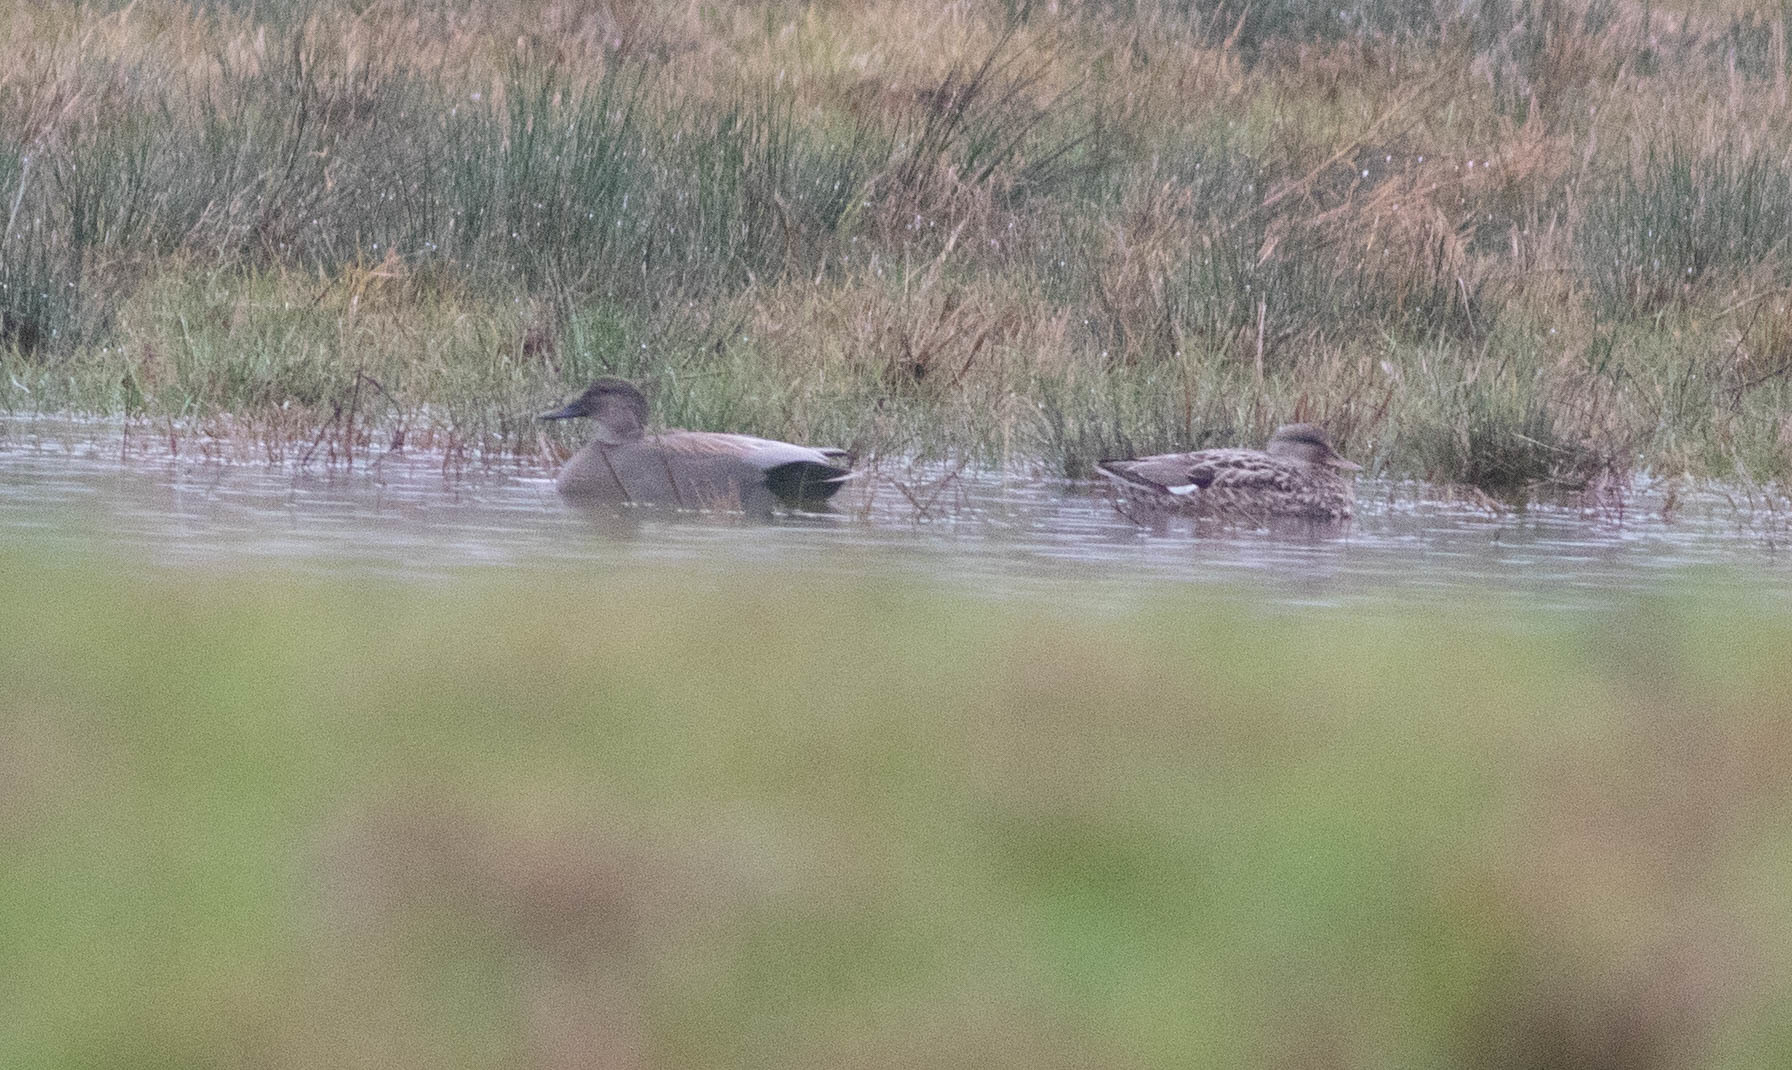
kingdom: Animalia
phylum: Chordata
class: Aves
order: Anseriformes
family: Anatidae
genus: Mareca
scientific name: Mareca strepera
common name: Gadwall
